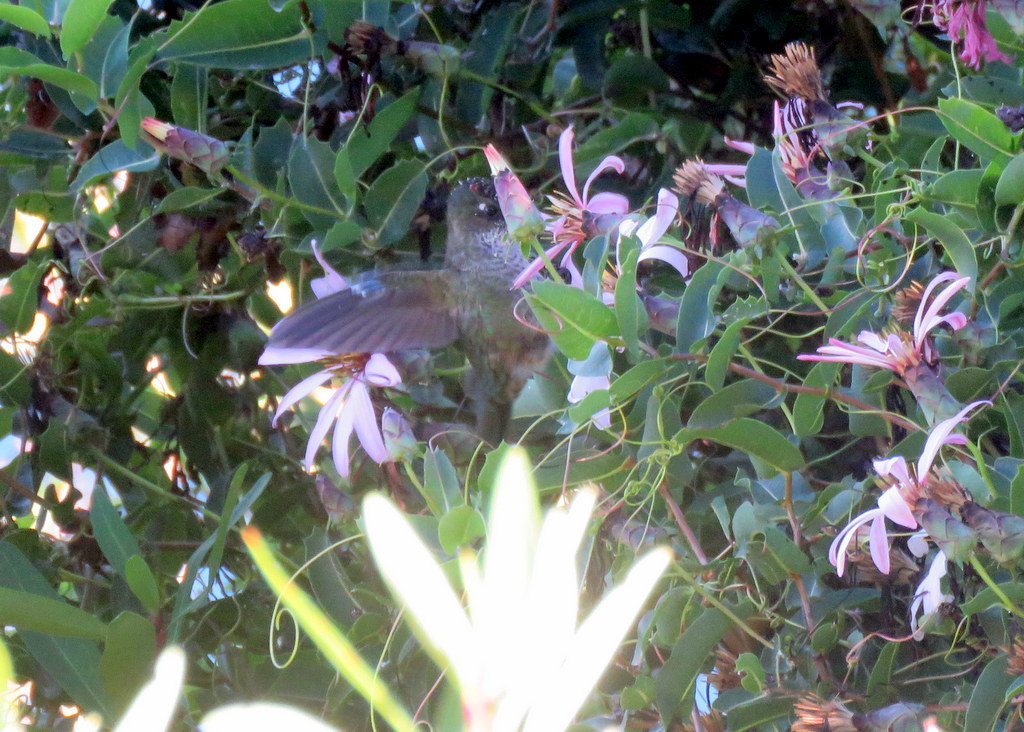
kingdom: Animalia
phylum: Chordata
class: Aves
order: Apodiformes
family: Trochilidae
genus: Sephanoides
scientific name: Sephanoides sephaniodes
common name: Green-backed firecrown
